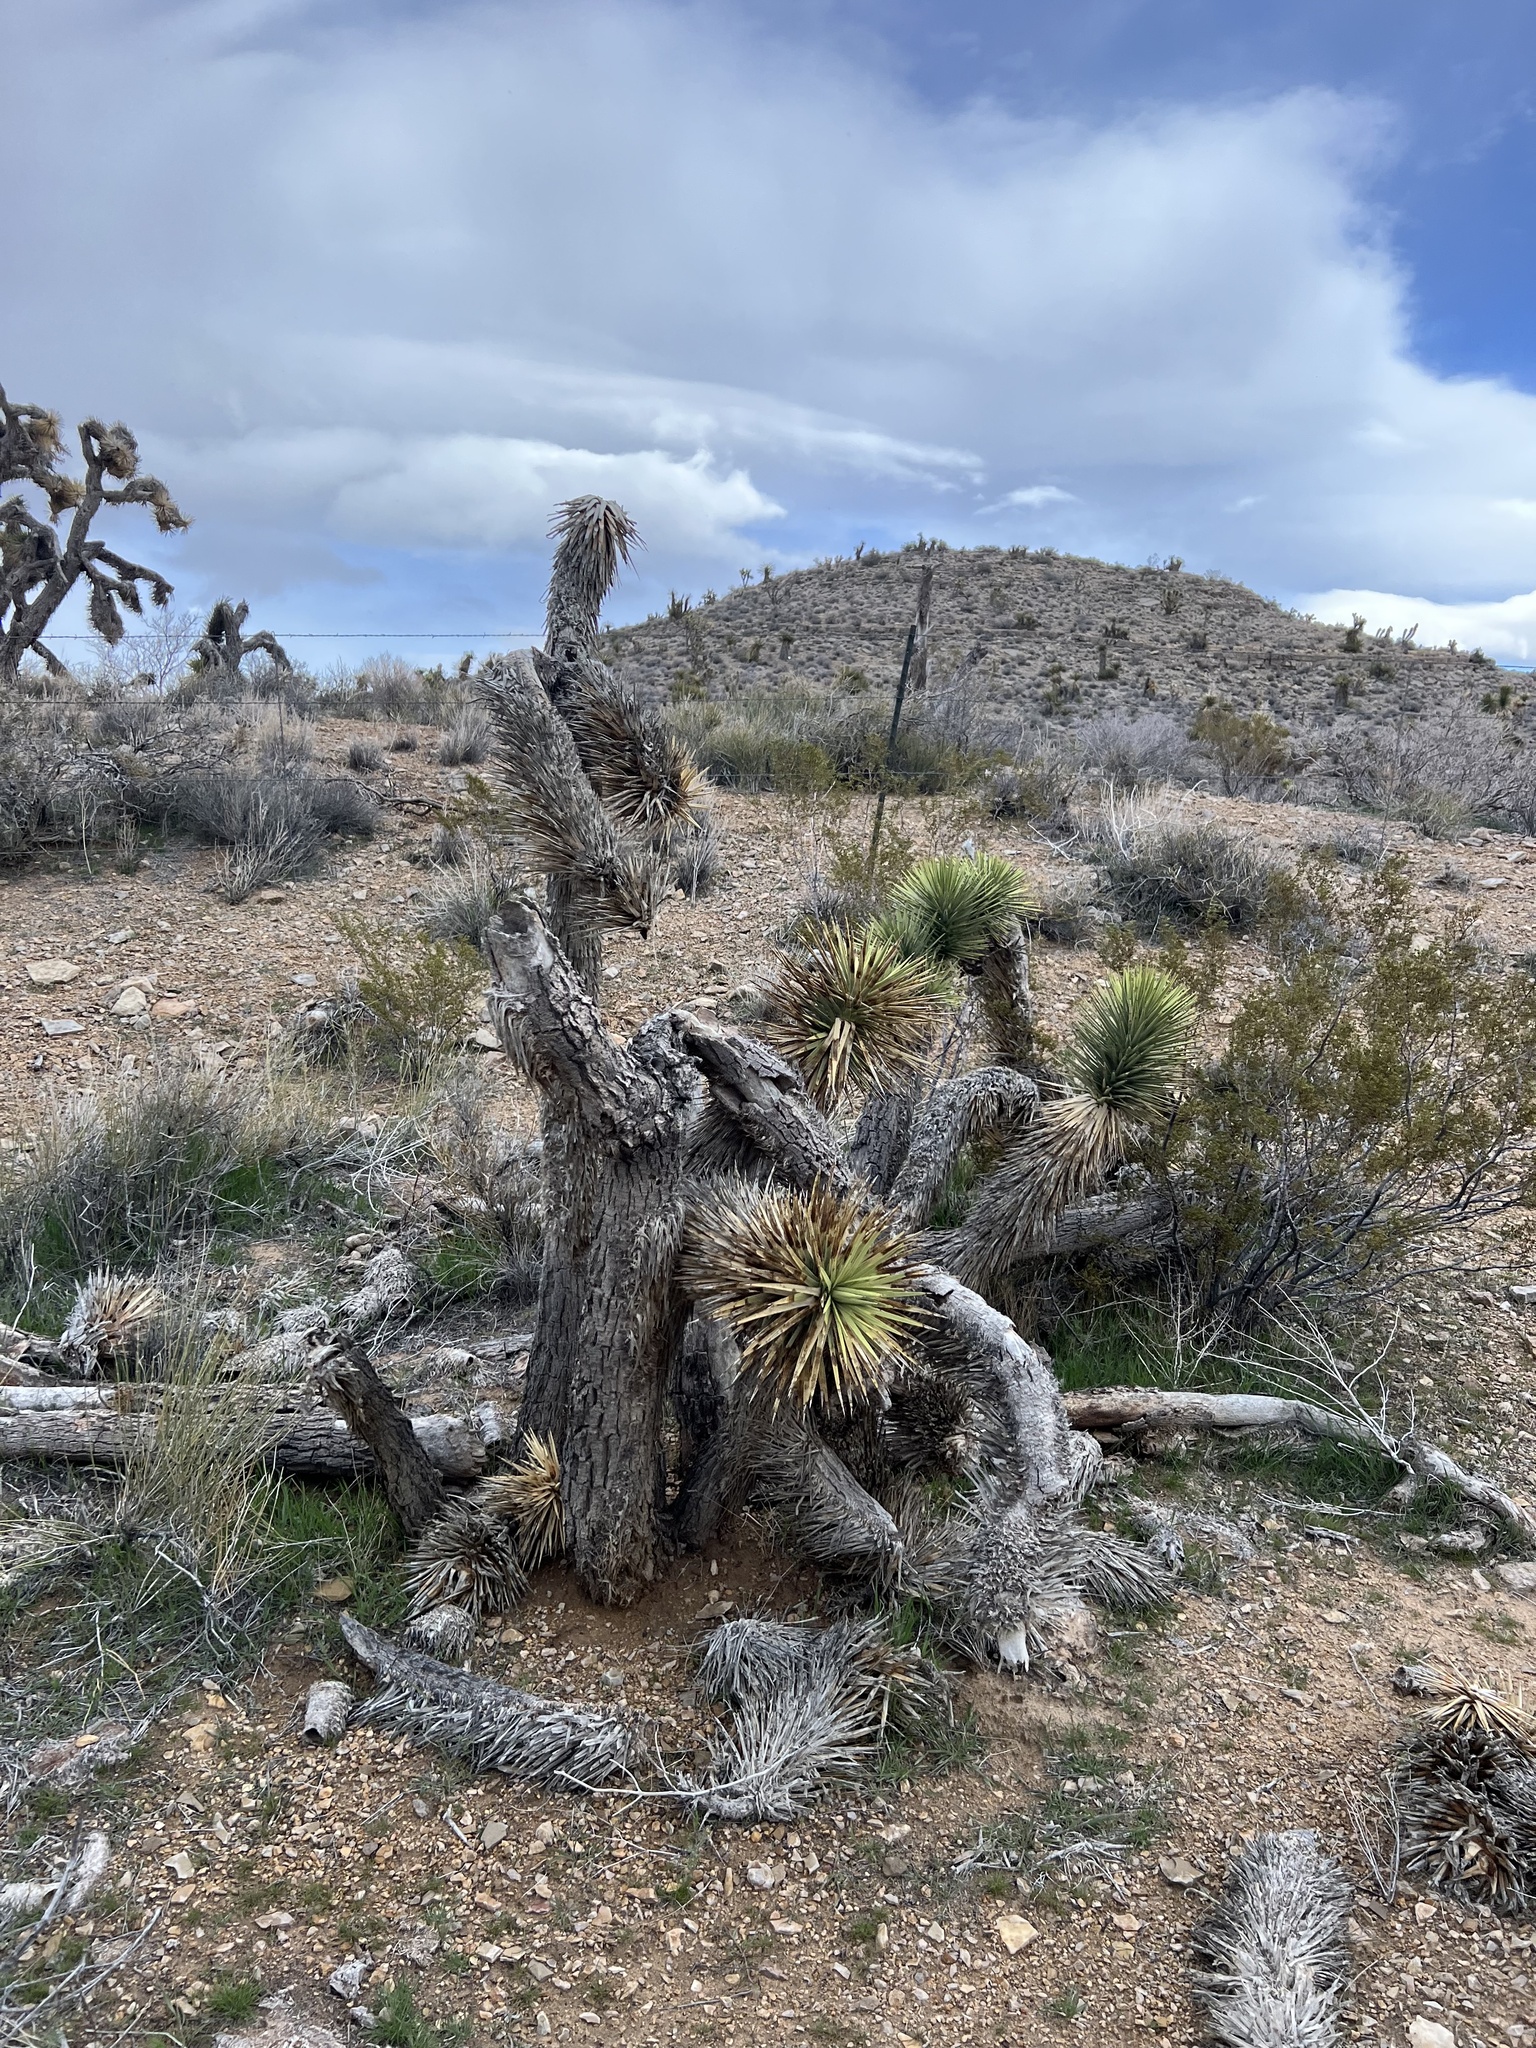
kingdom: Plantae
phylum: Tracheophyta
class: Liliopsida
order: Asparagales
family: Asparagaceae
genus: Yucca
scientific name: Yucca brevifolia
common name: Joshua tree
